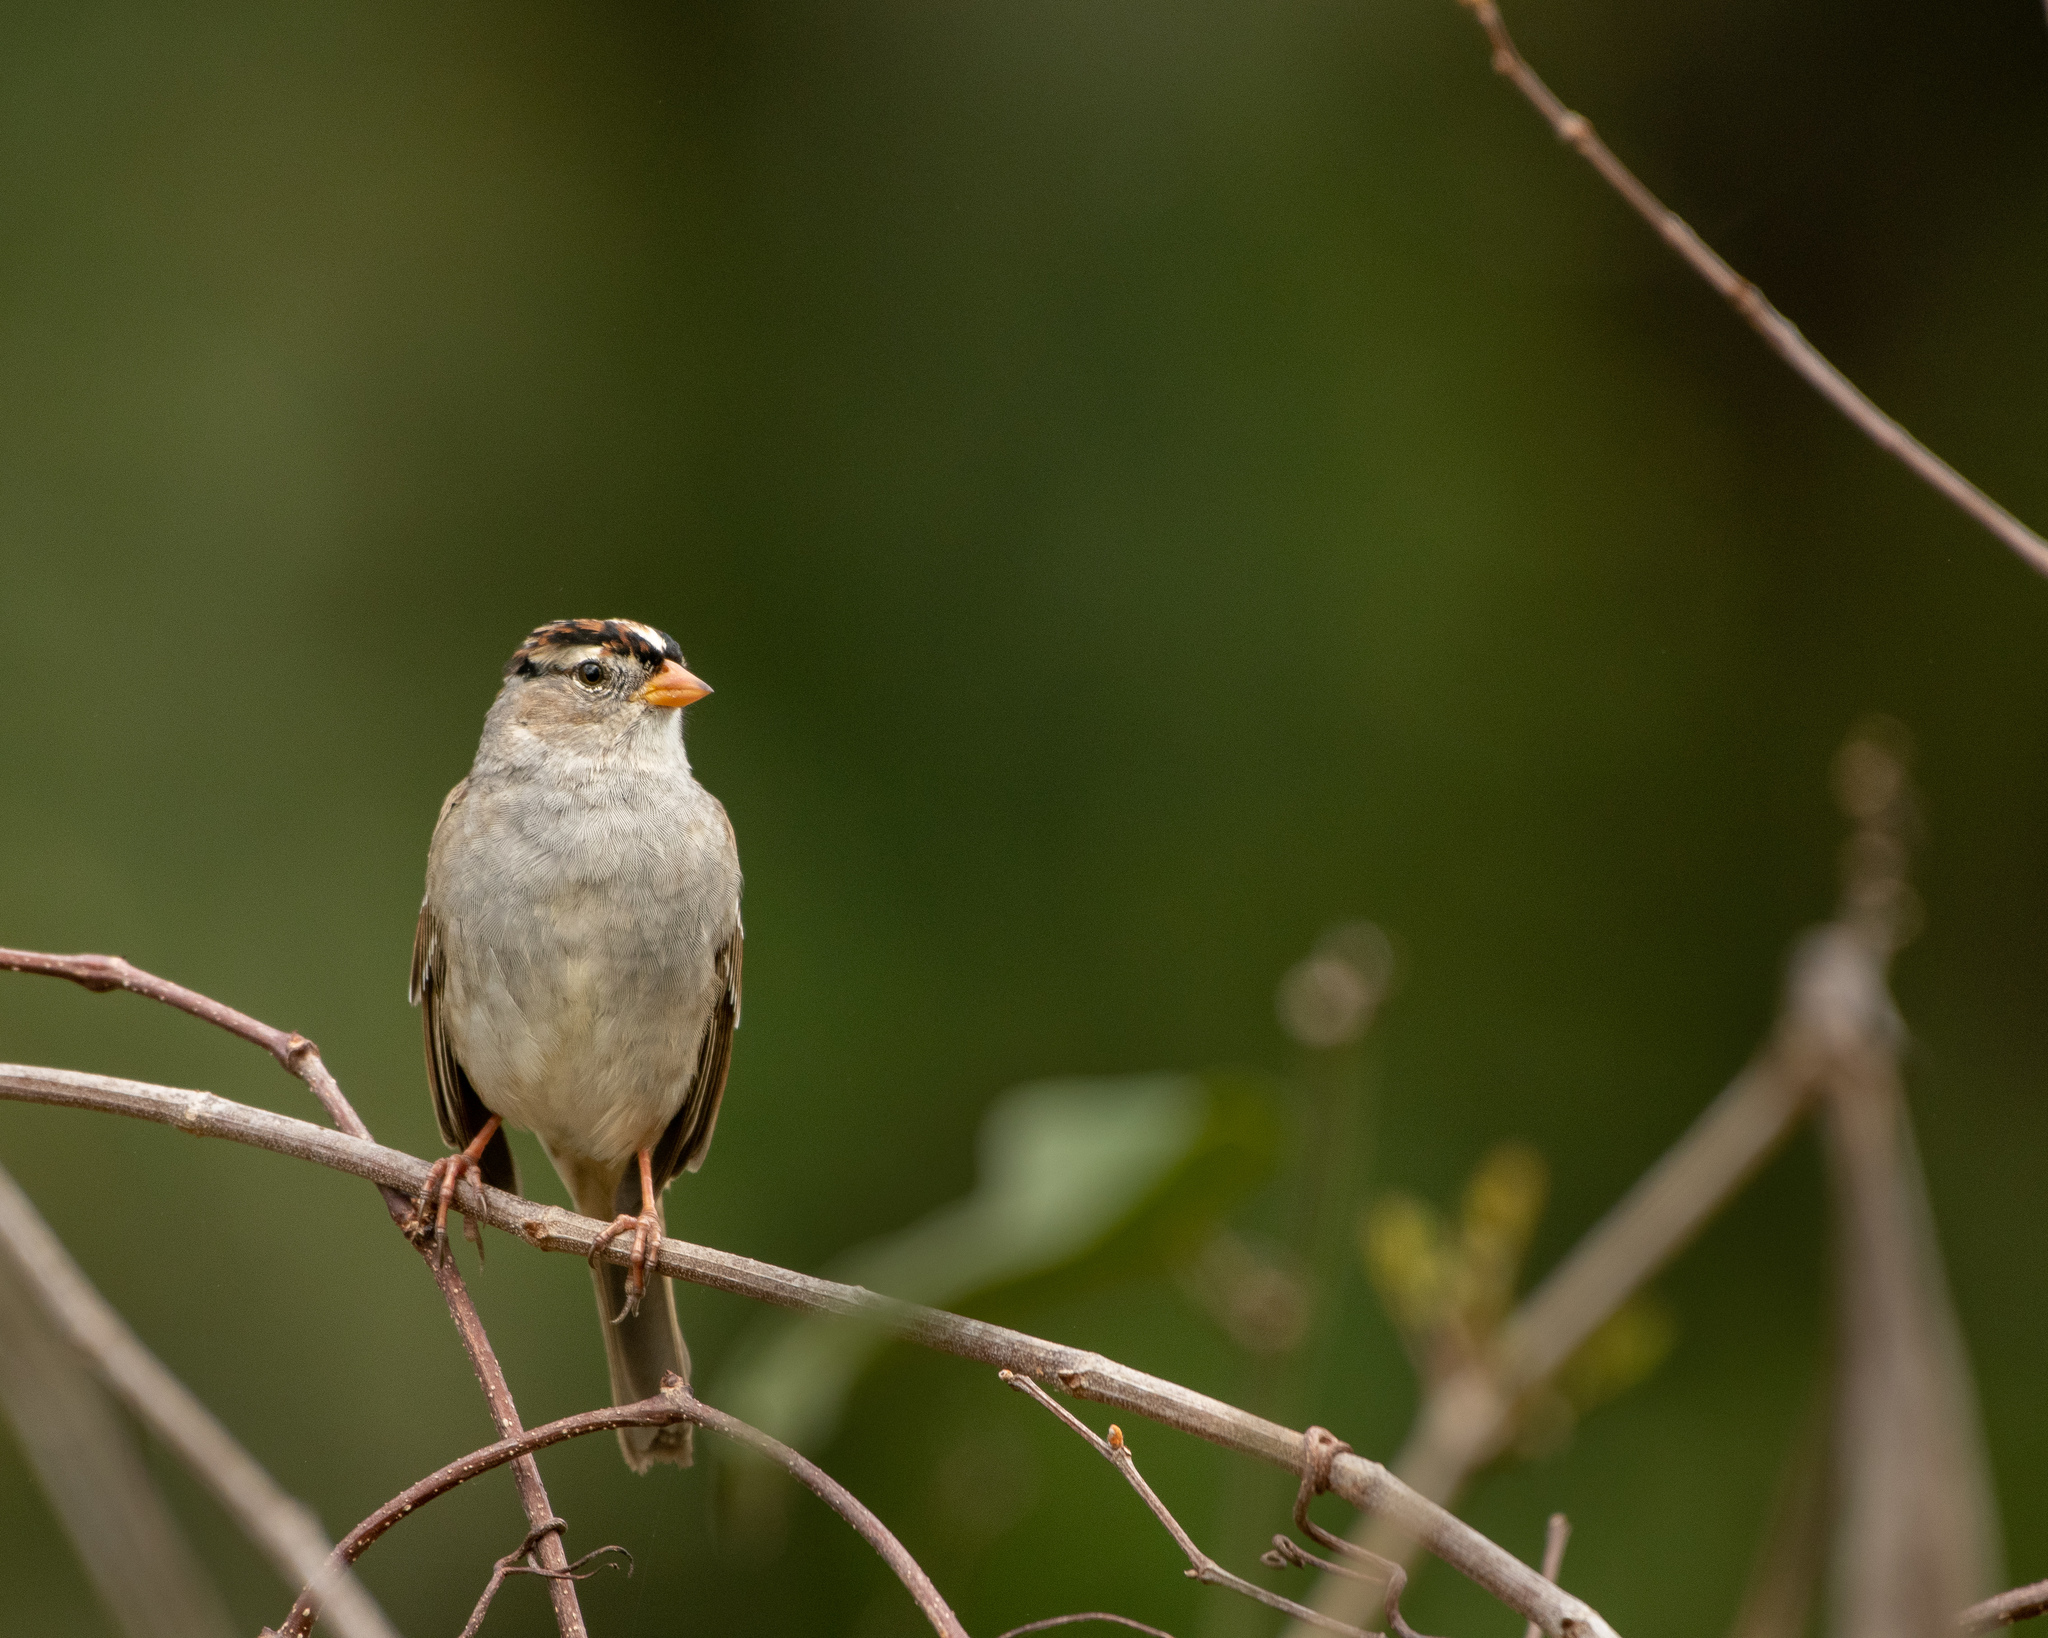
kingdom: Animalia
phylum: Chordata
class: Aves
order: Passeriformes
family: Passerellidae
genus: Zonotrichia
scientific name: Zonotrichia leucophrys
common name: White-crowned sparrow
